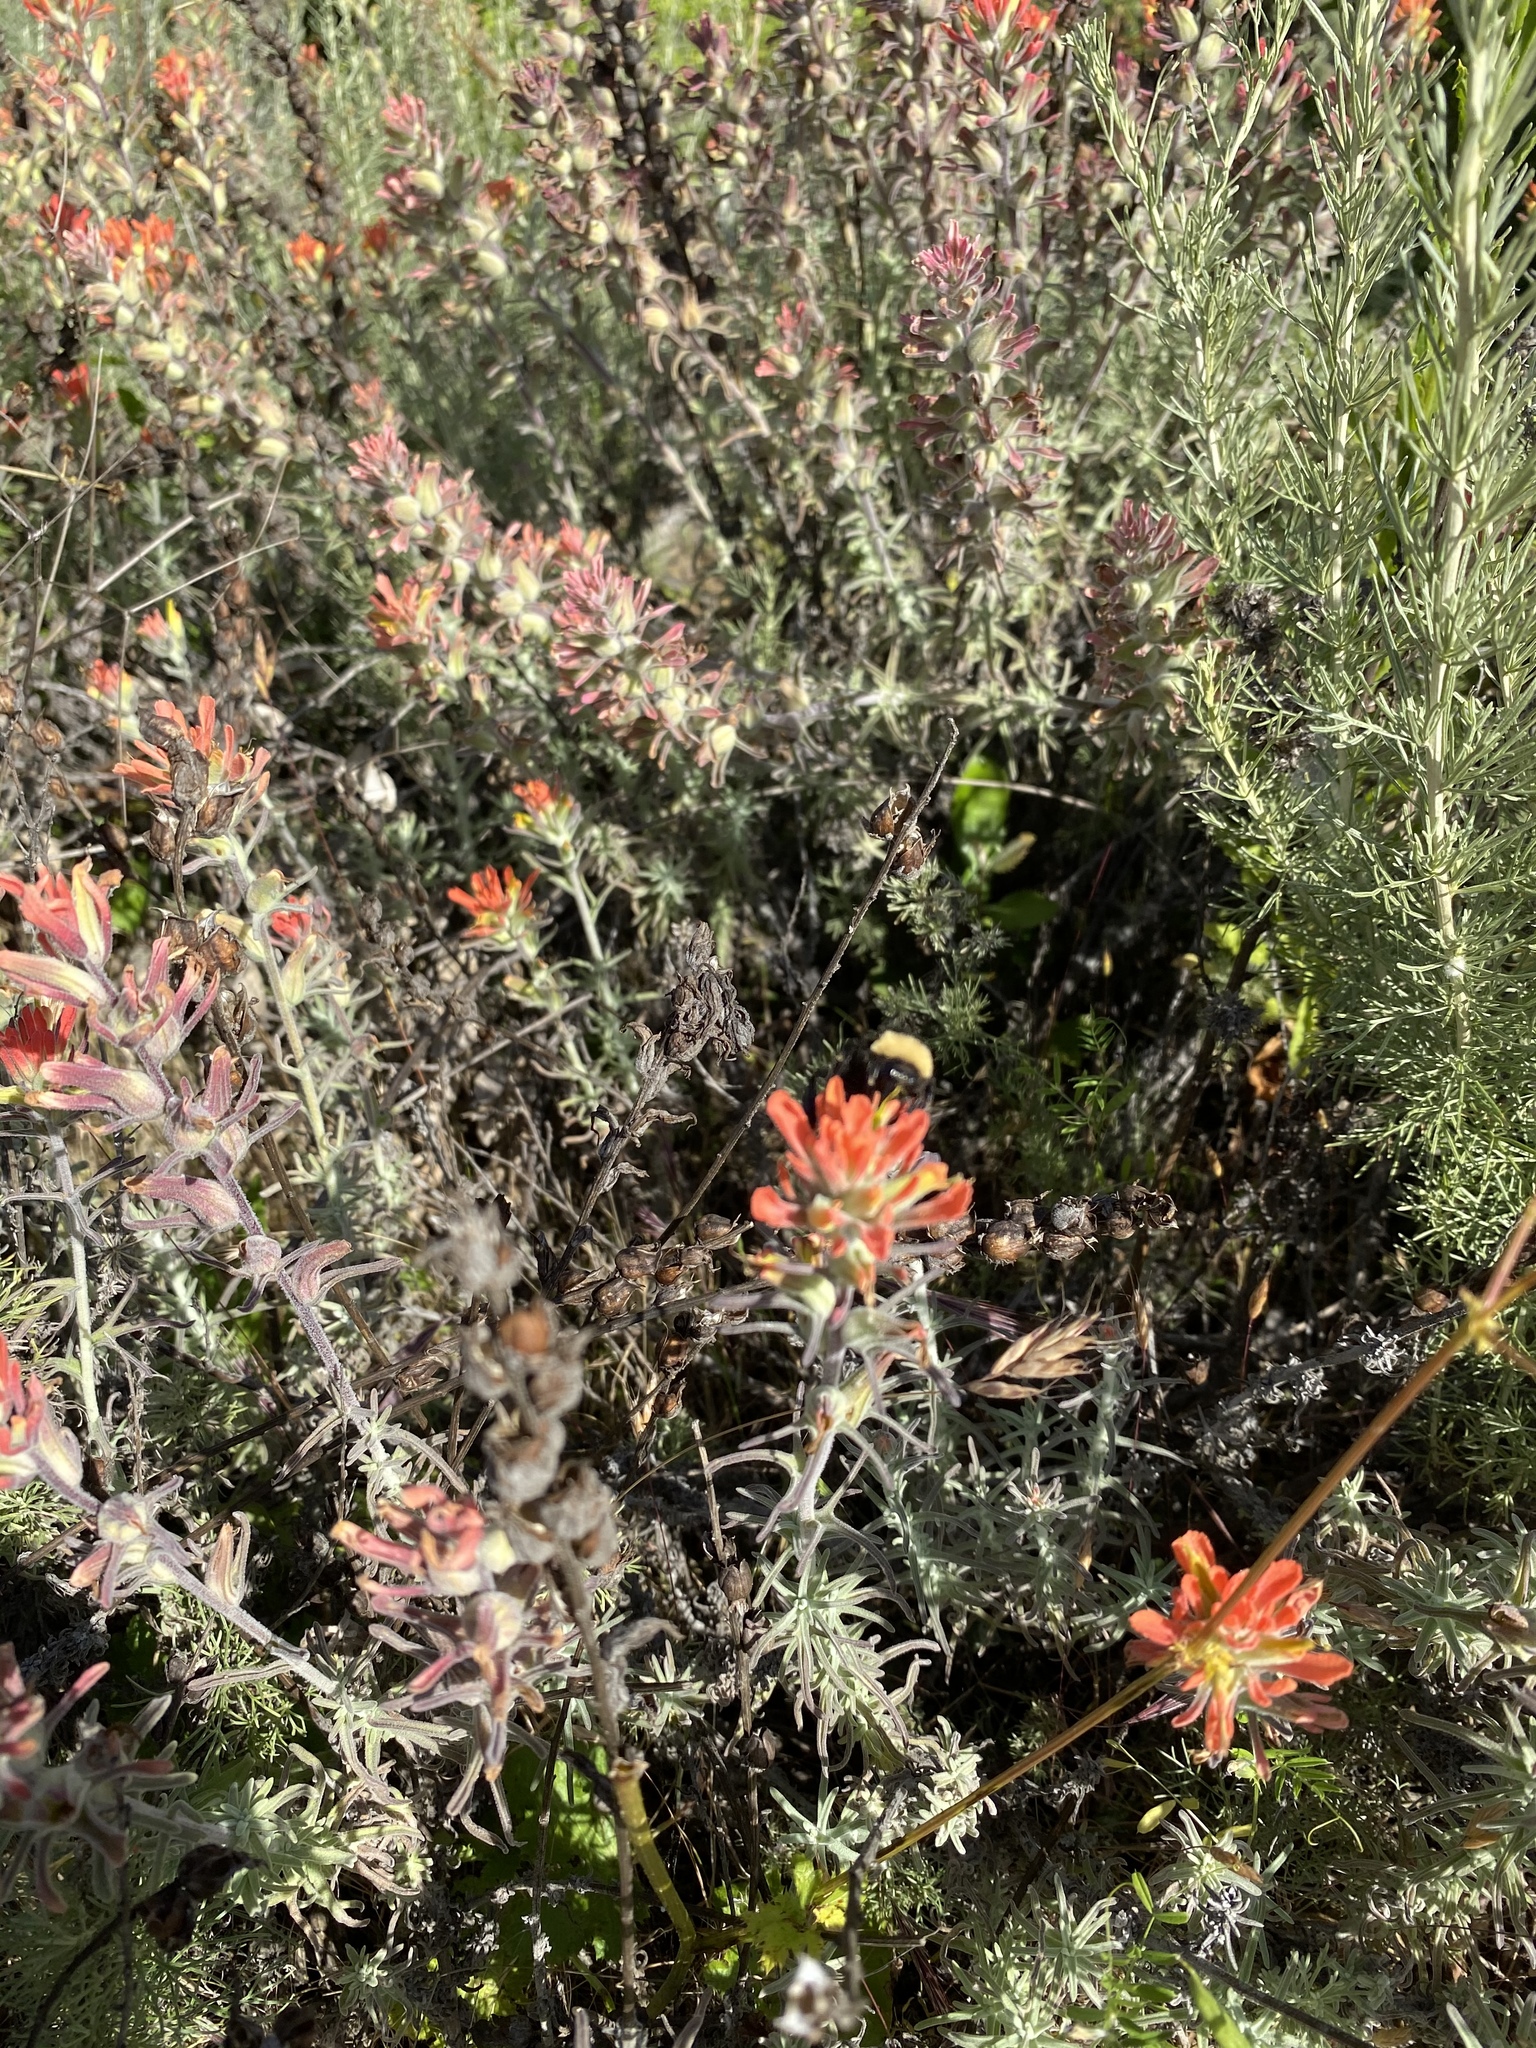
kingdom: Animalia
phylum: Arthropoda
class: Insecta
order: Hymenoptera
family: Apidae
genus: Bombus
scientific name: Bombus californicus
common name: California bumble bee
